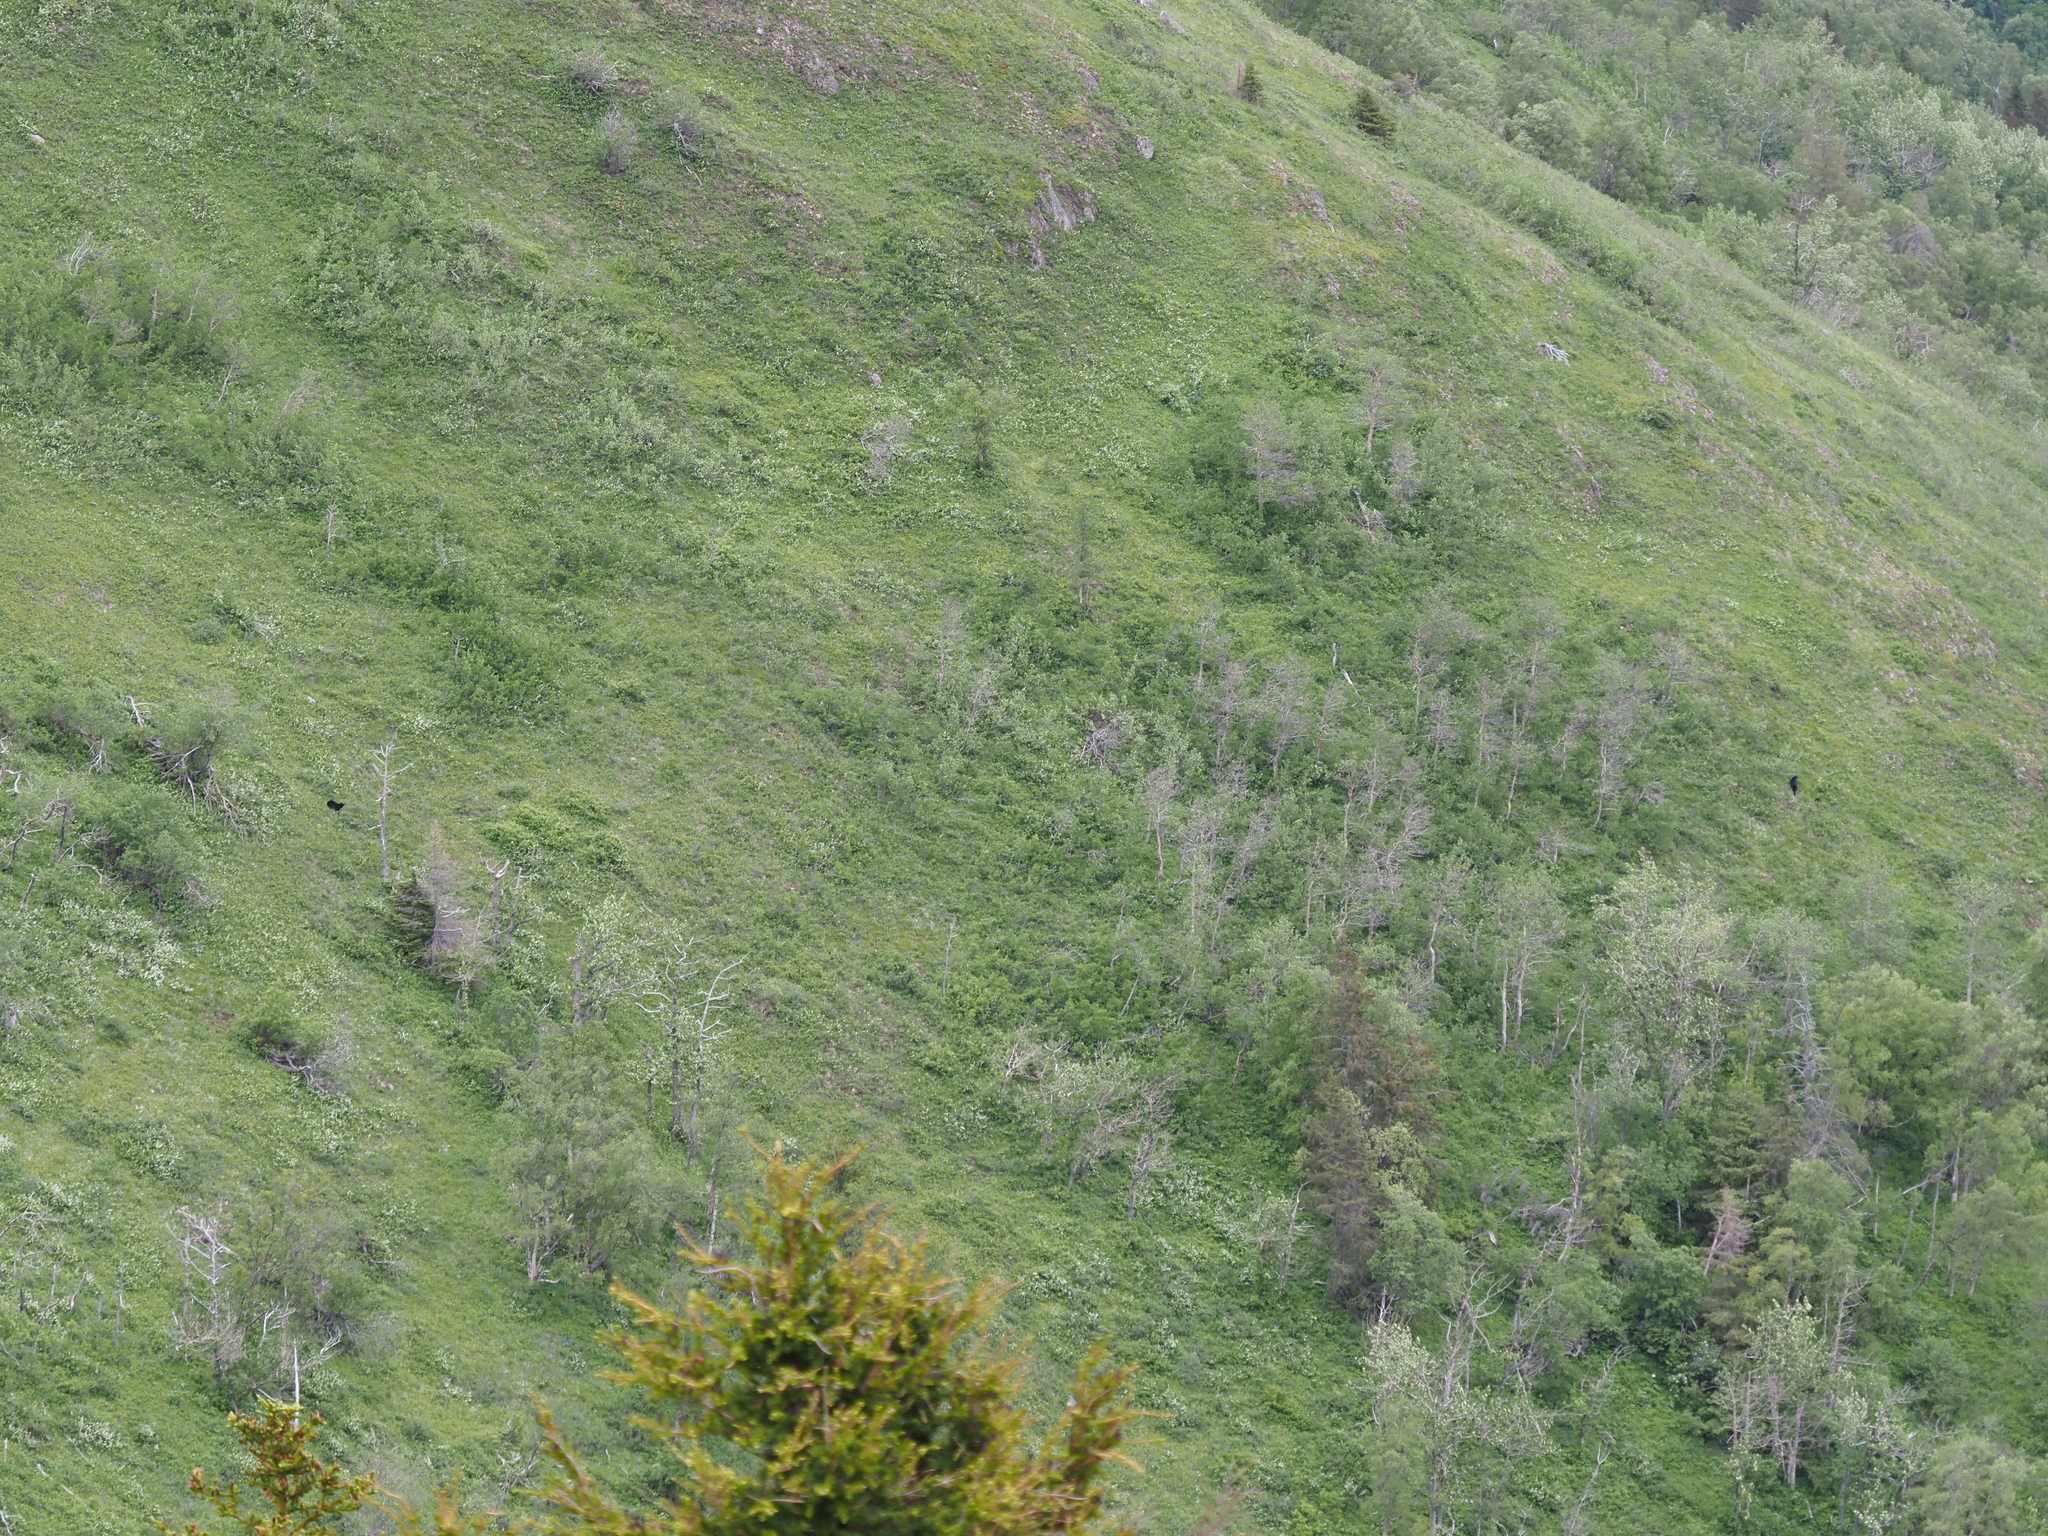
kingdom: Animalia
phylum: Chordata
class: Mammalia
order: Carnivora
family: Ursidae
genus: Ursus
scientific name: Ursus americanus
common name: American black bear
